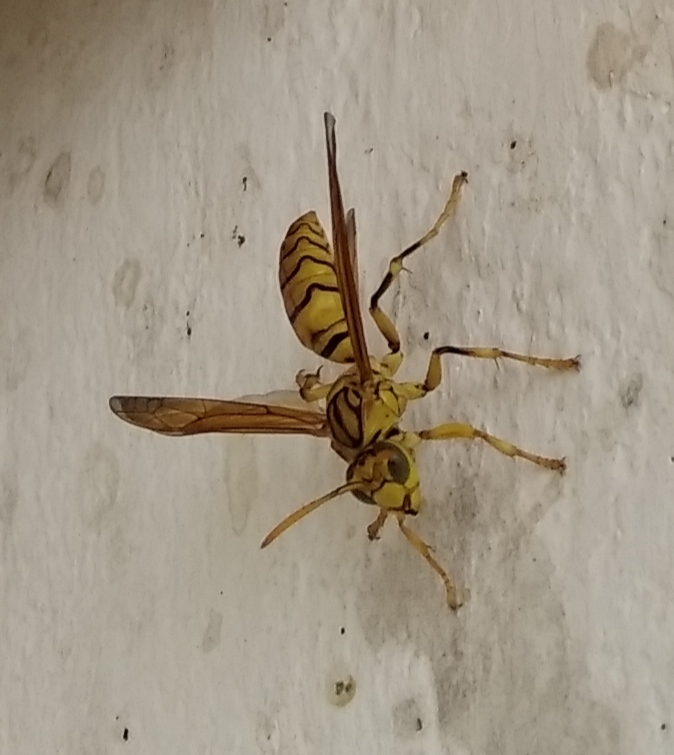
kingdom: Animalia
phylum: Arthropoda
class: Insecta
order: Hymenoptera
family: Eumenidae
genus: Polistes
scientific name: Polistes olivaceus
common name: Paper wasp
